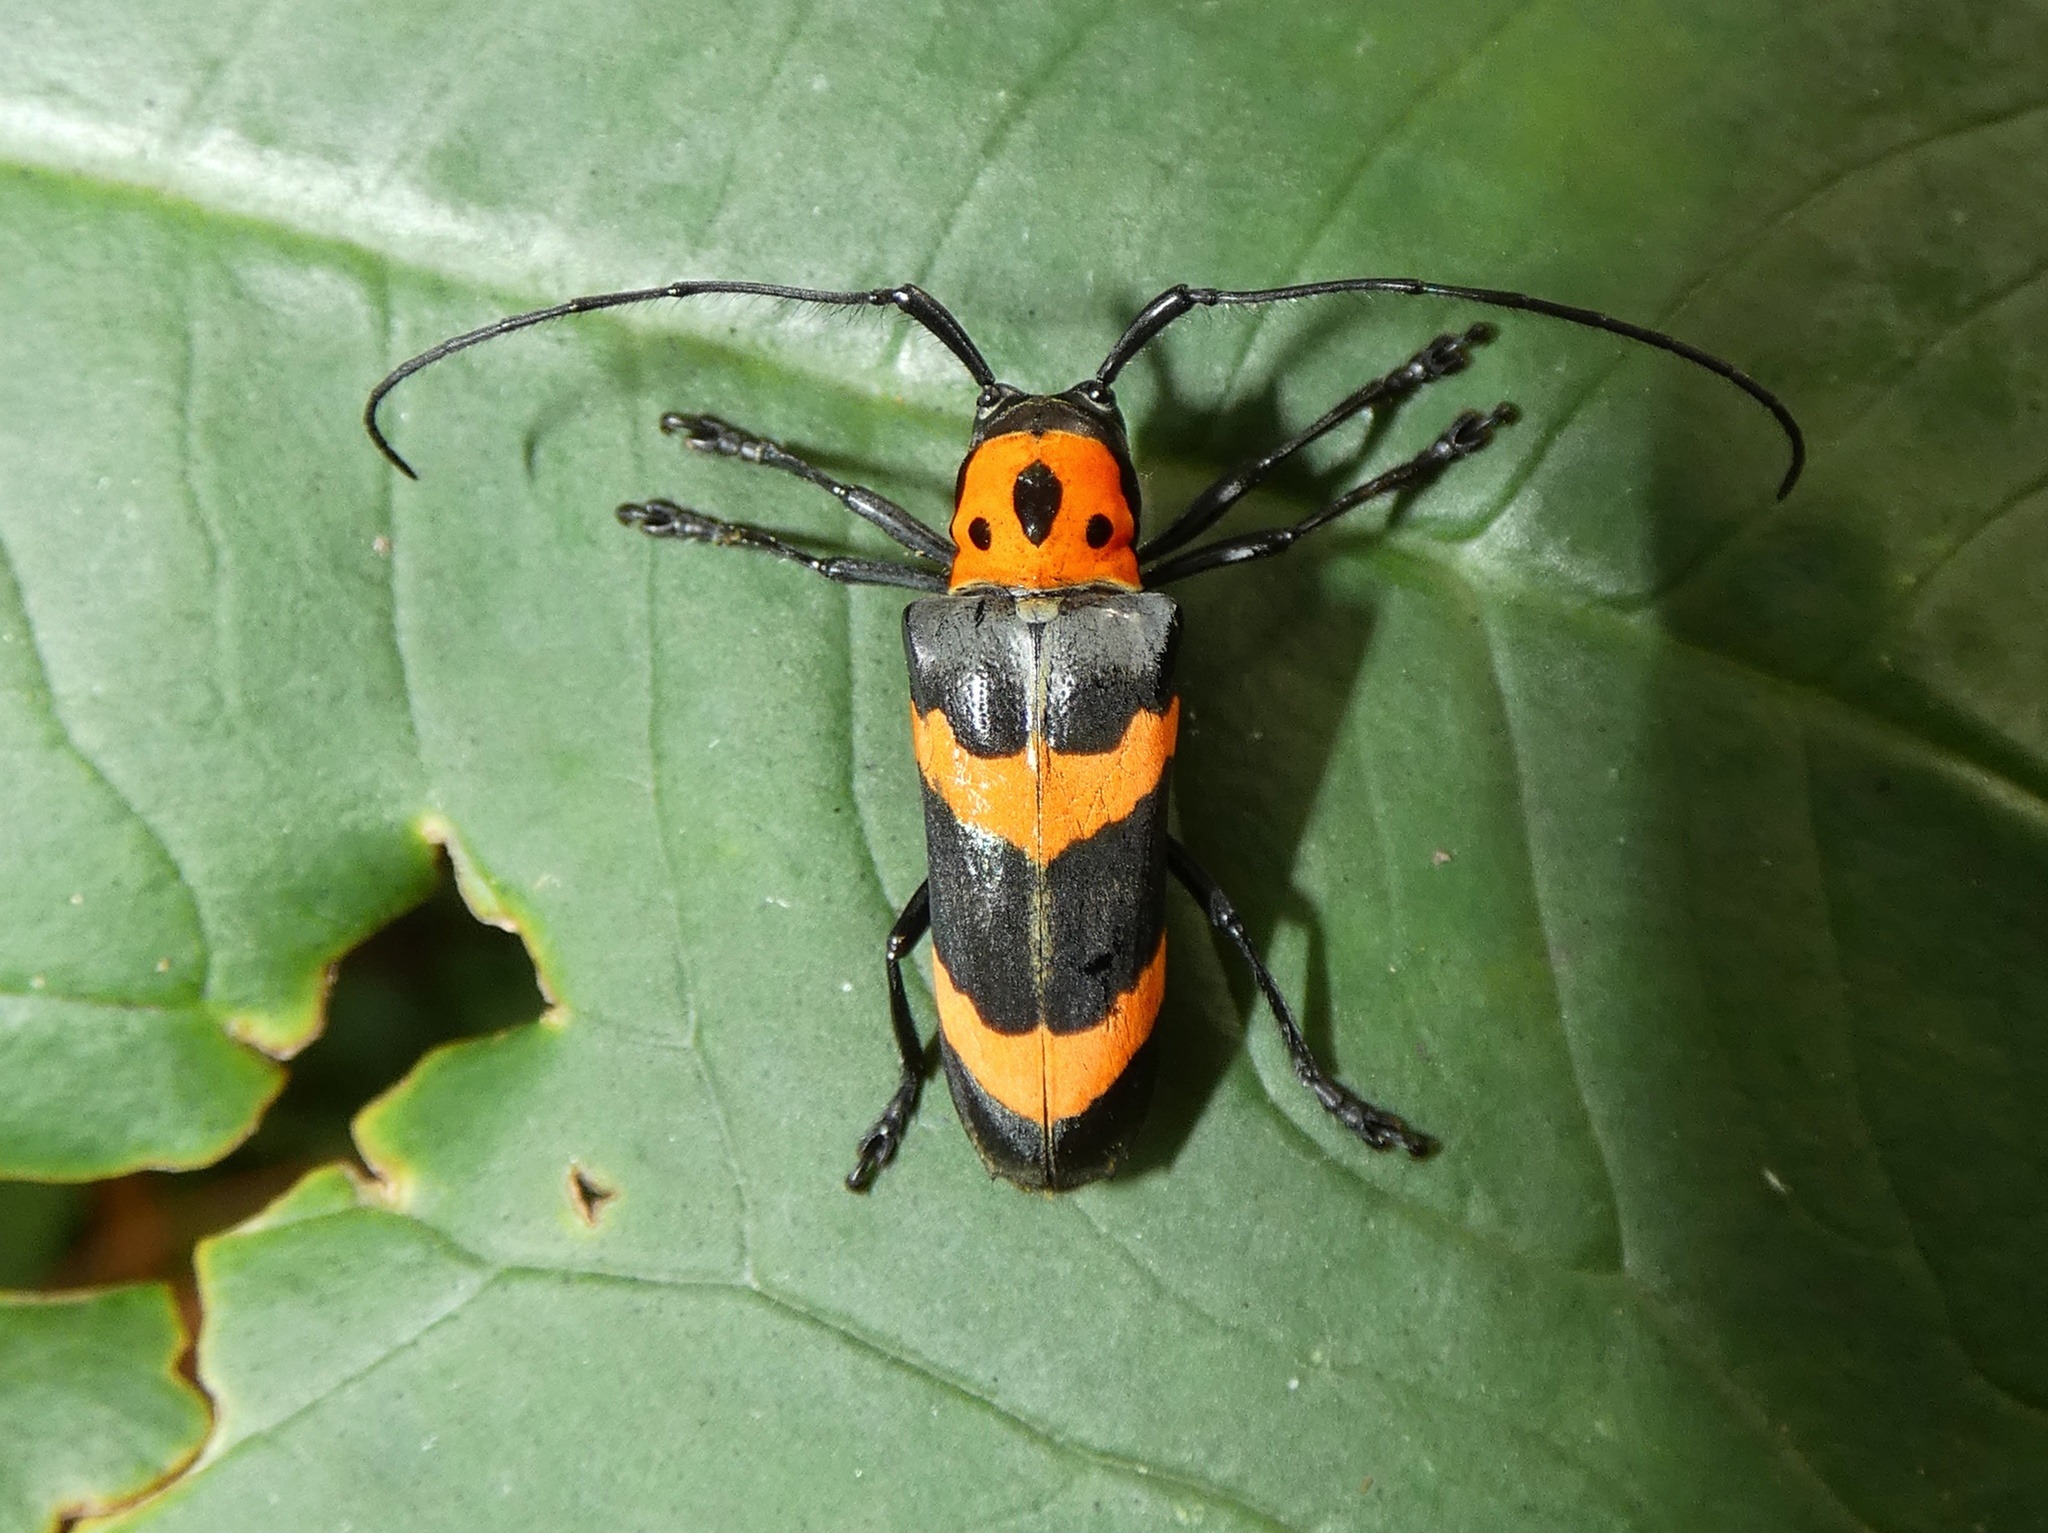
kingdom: Animalia
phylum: Arthropoda
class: Insecta
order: Coleoptera
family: Cerambycidae
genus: Oedudes
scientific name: Oedudes bifasciatus
